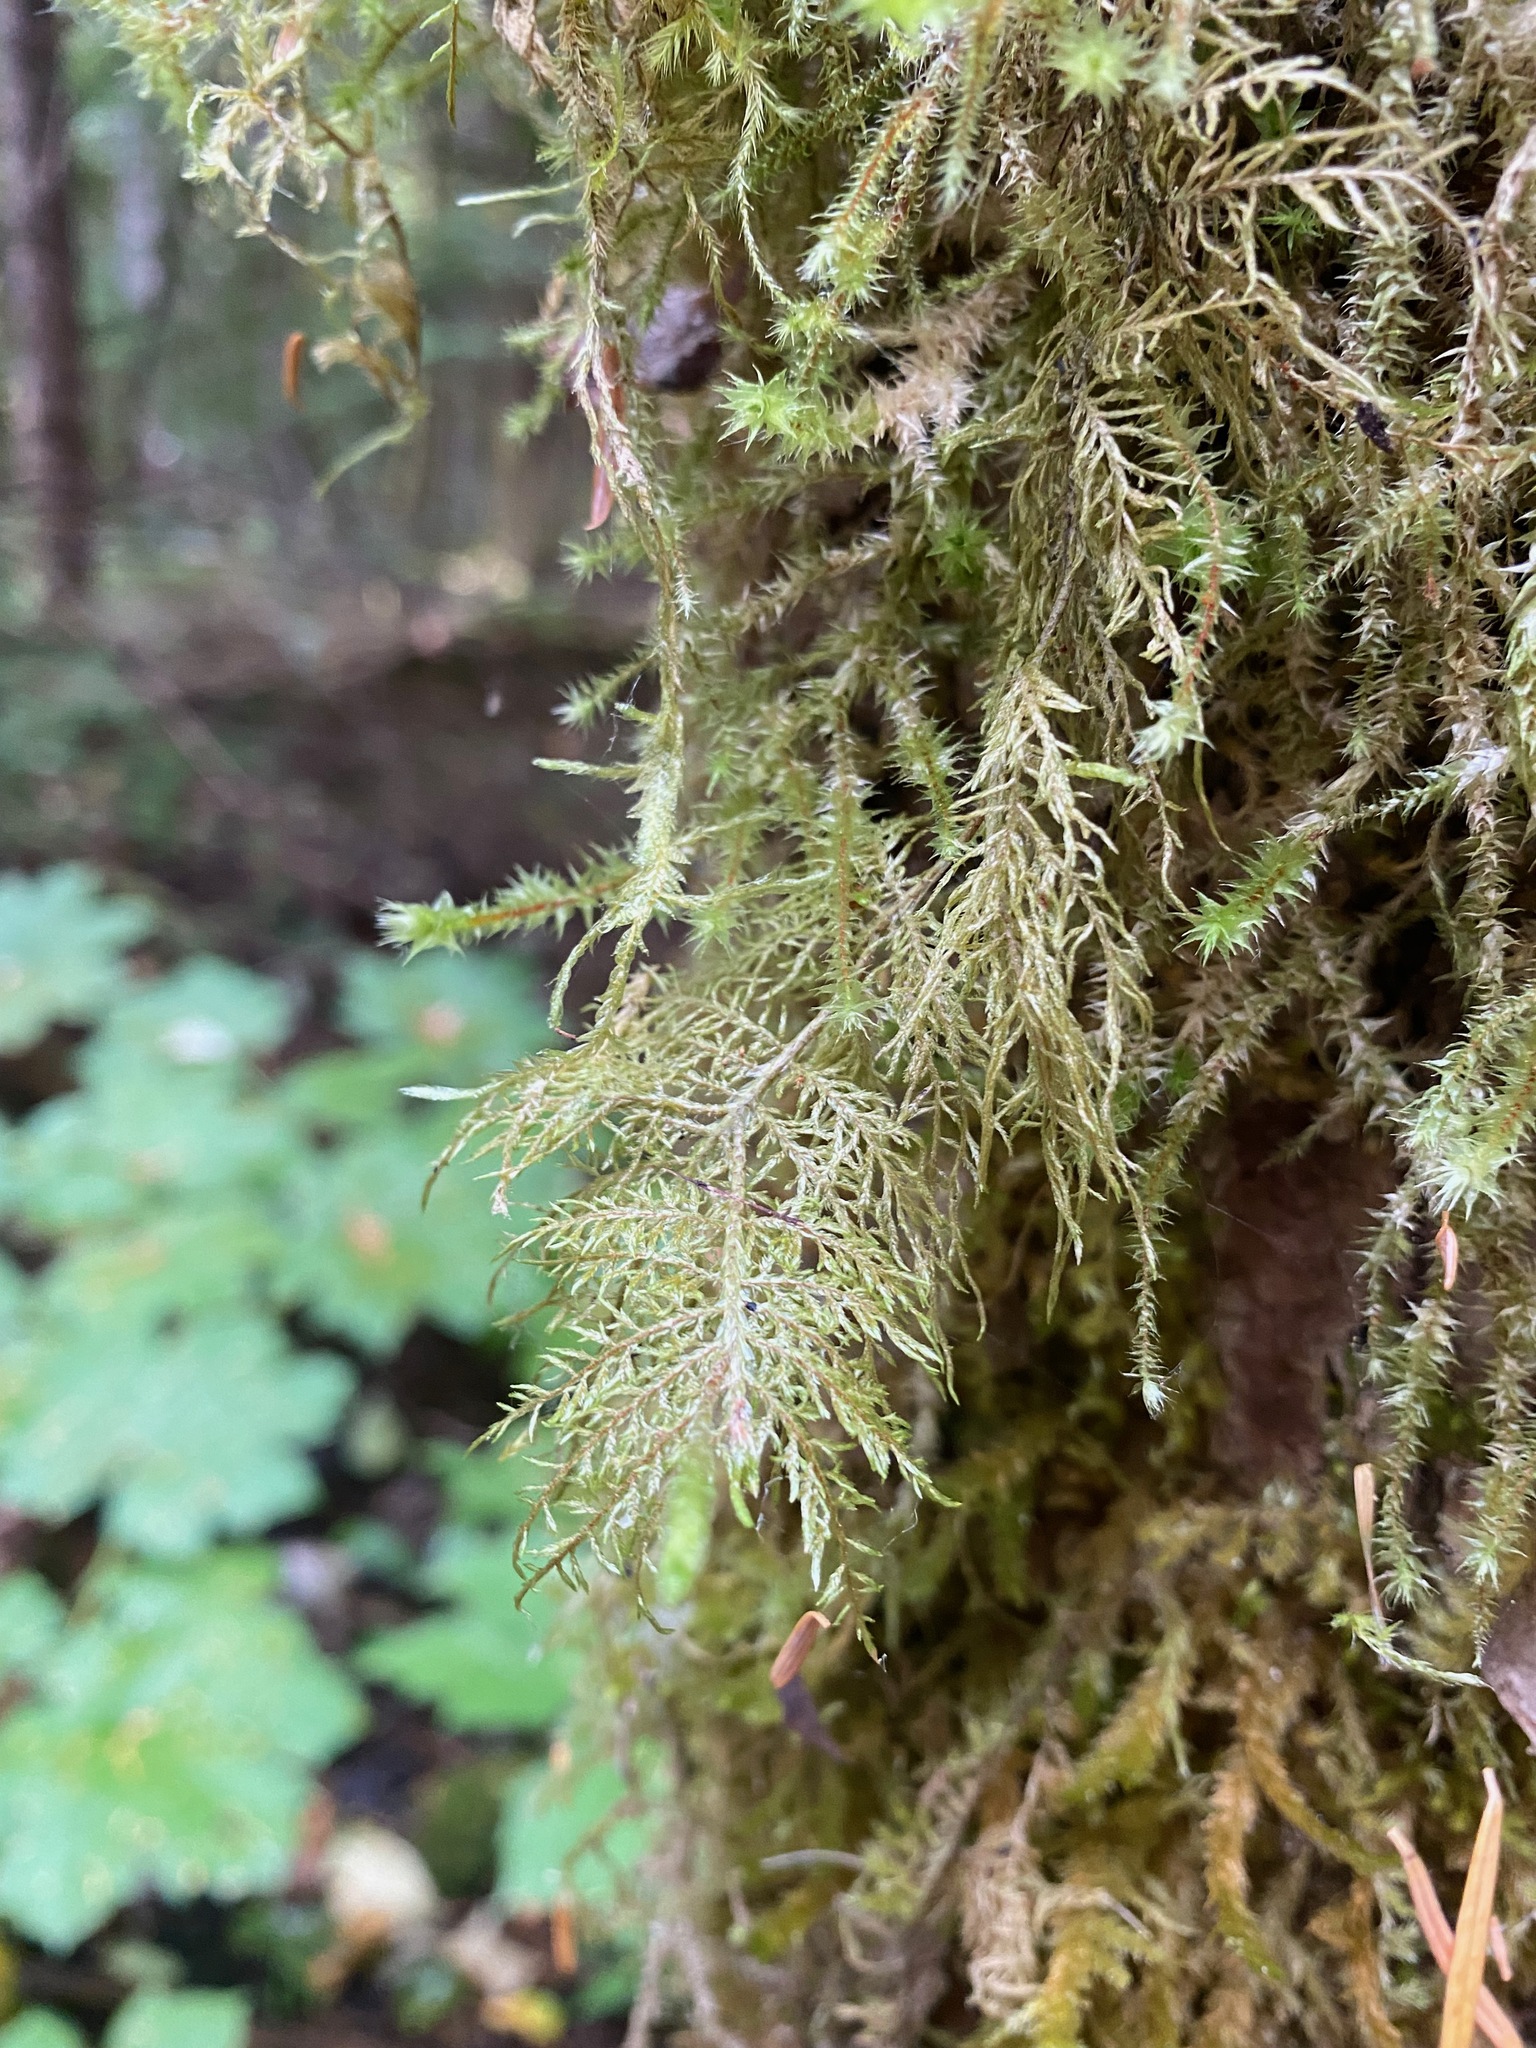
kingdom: Plantae
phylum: Bryophyta
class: Bryopsida
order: Hypnales
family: Hylocomiaceae
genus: Hylocomium
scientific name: Hylocomium splendens
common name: Stairstep moss
